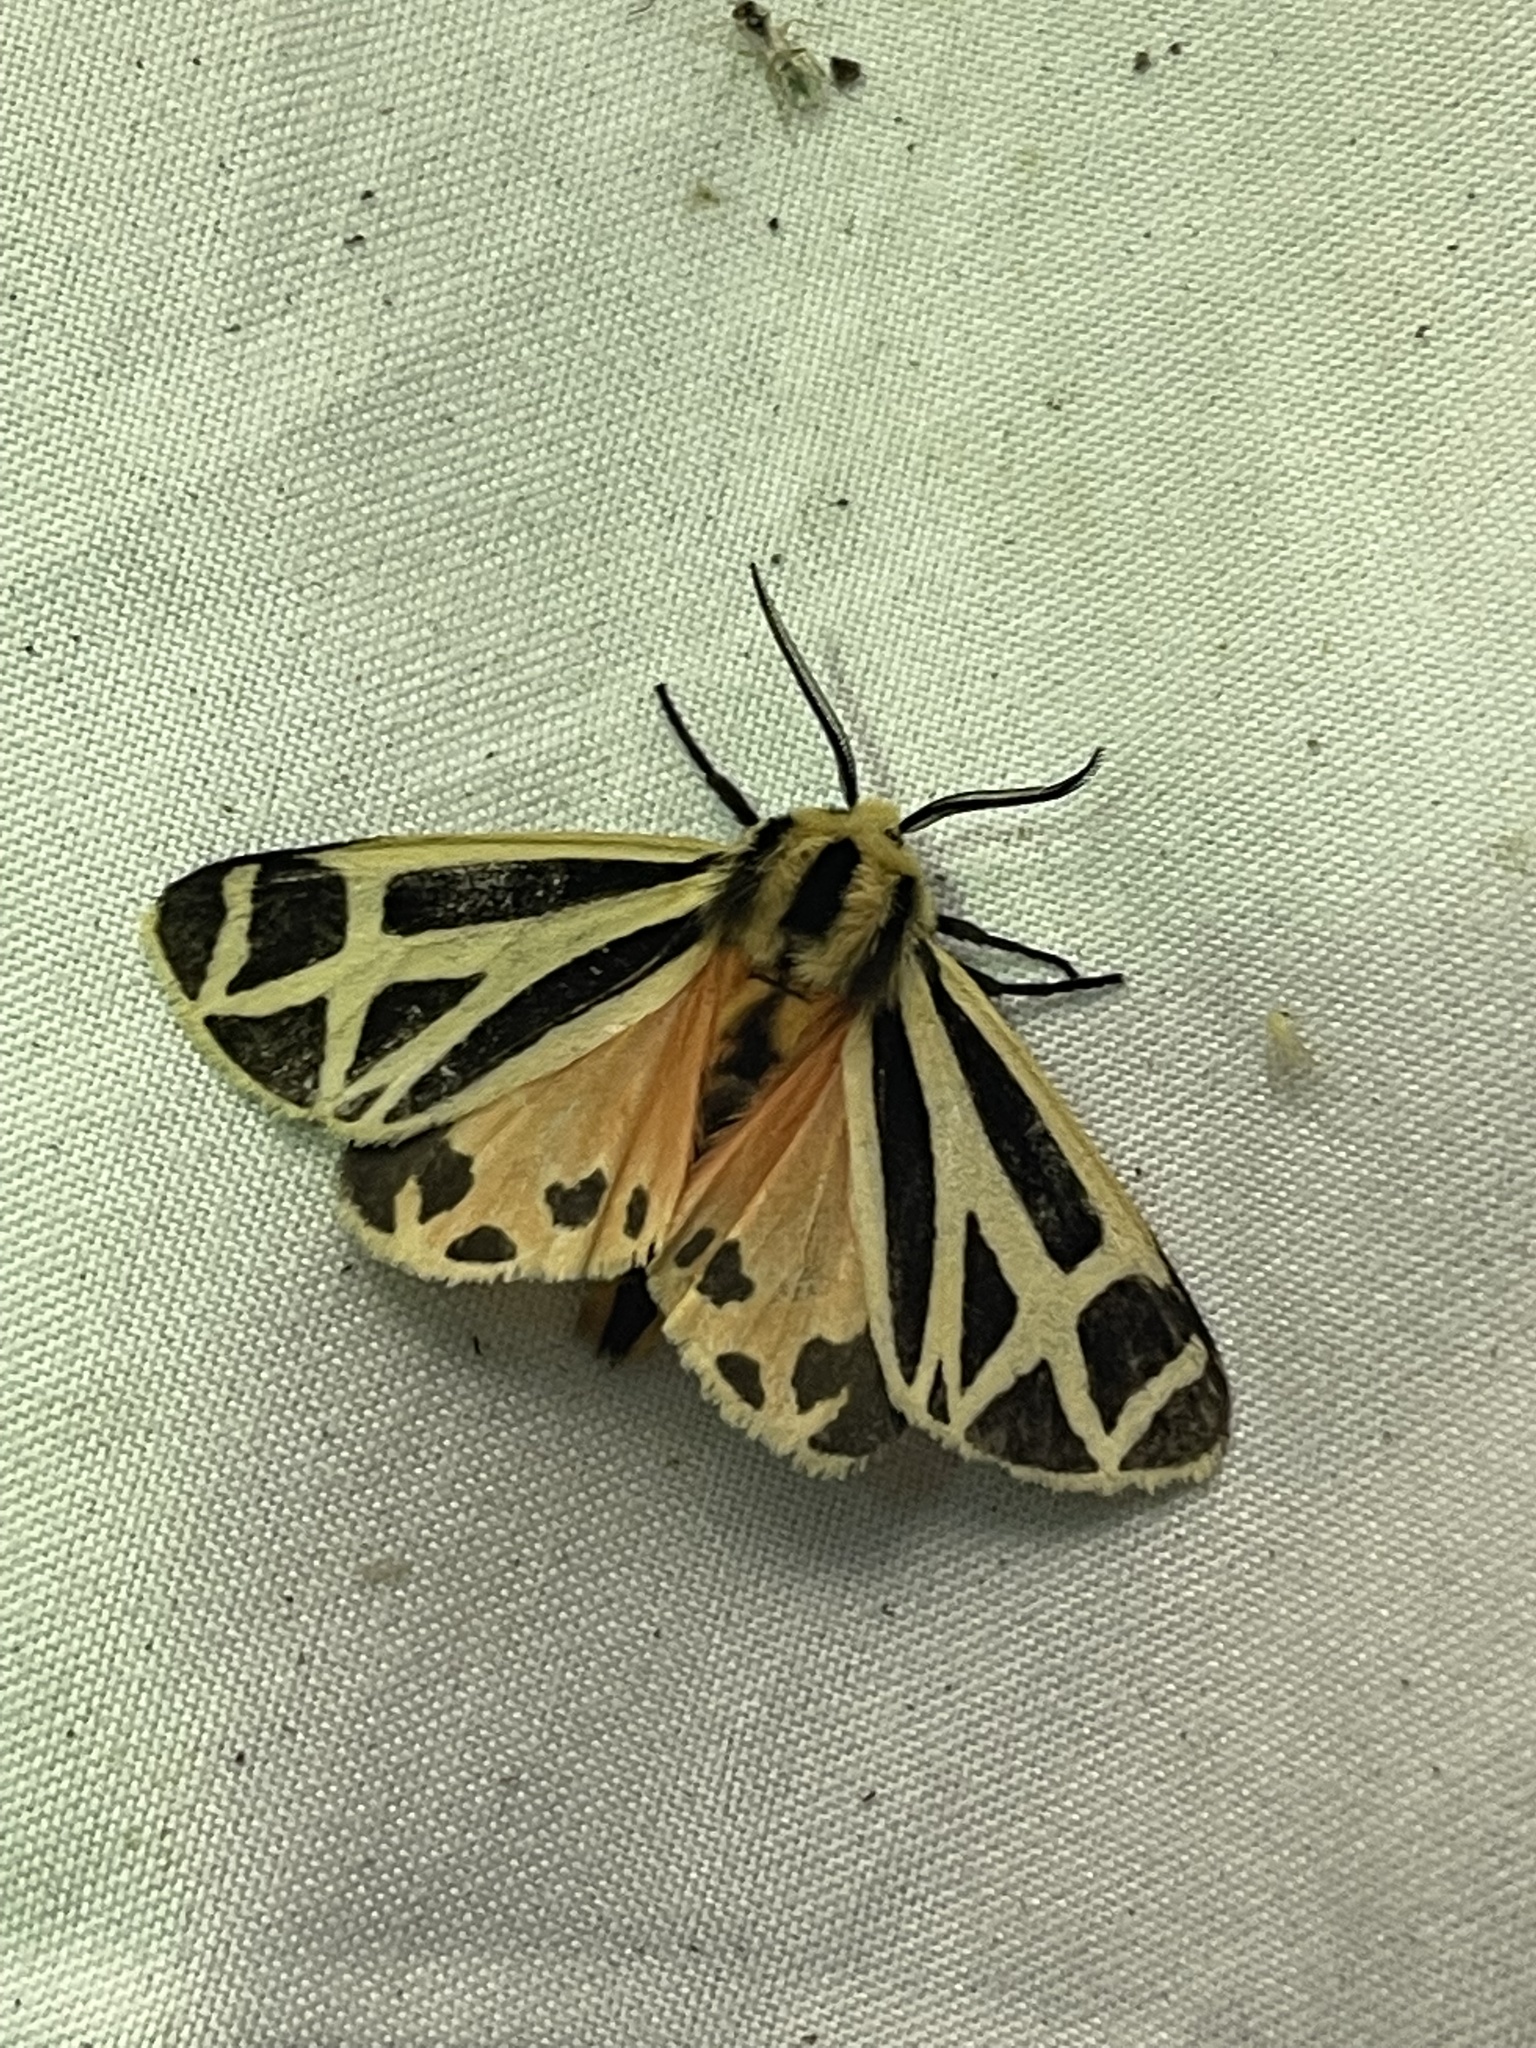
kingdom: Animalia
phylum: Arthropoda
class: Insecta
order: Lepidoptera
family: Erebidae
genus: Apantesis
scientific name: Apantesis phalerata
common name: Harnessed tiger moth
